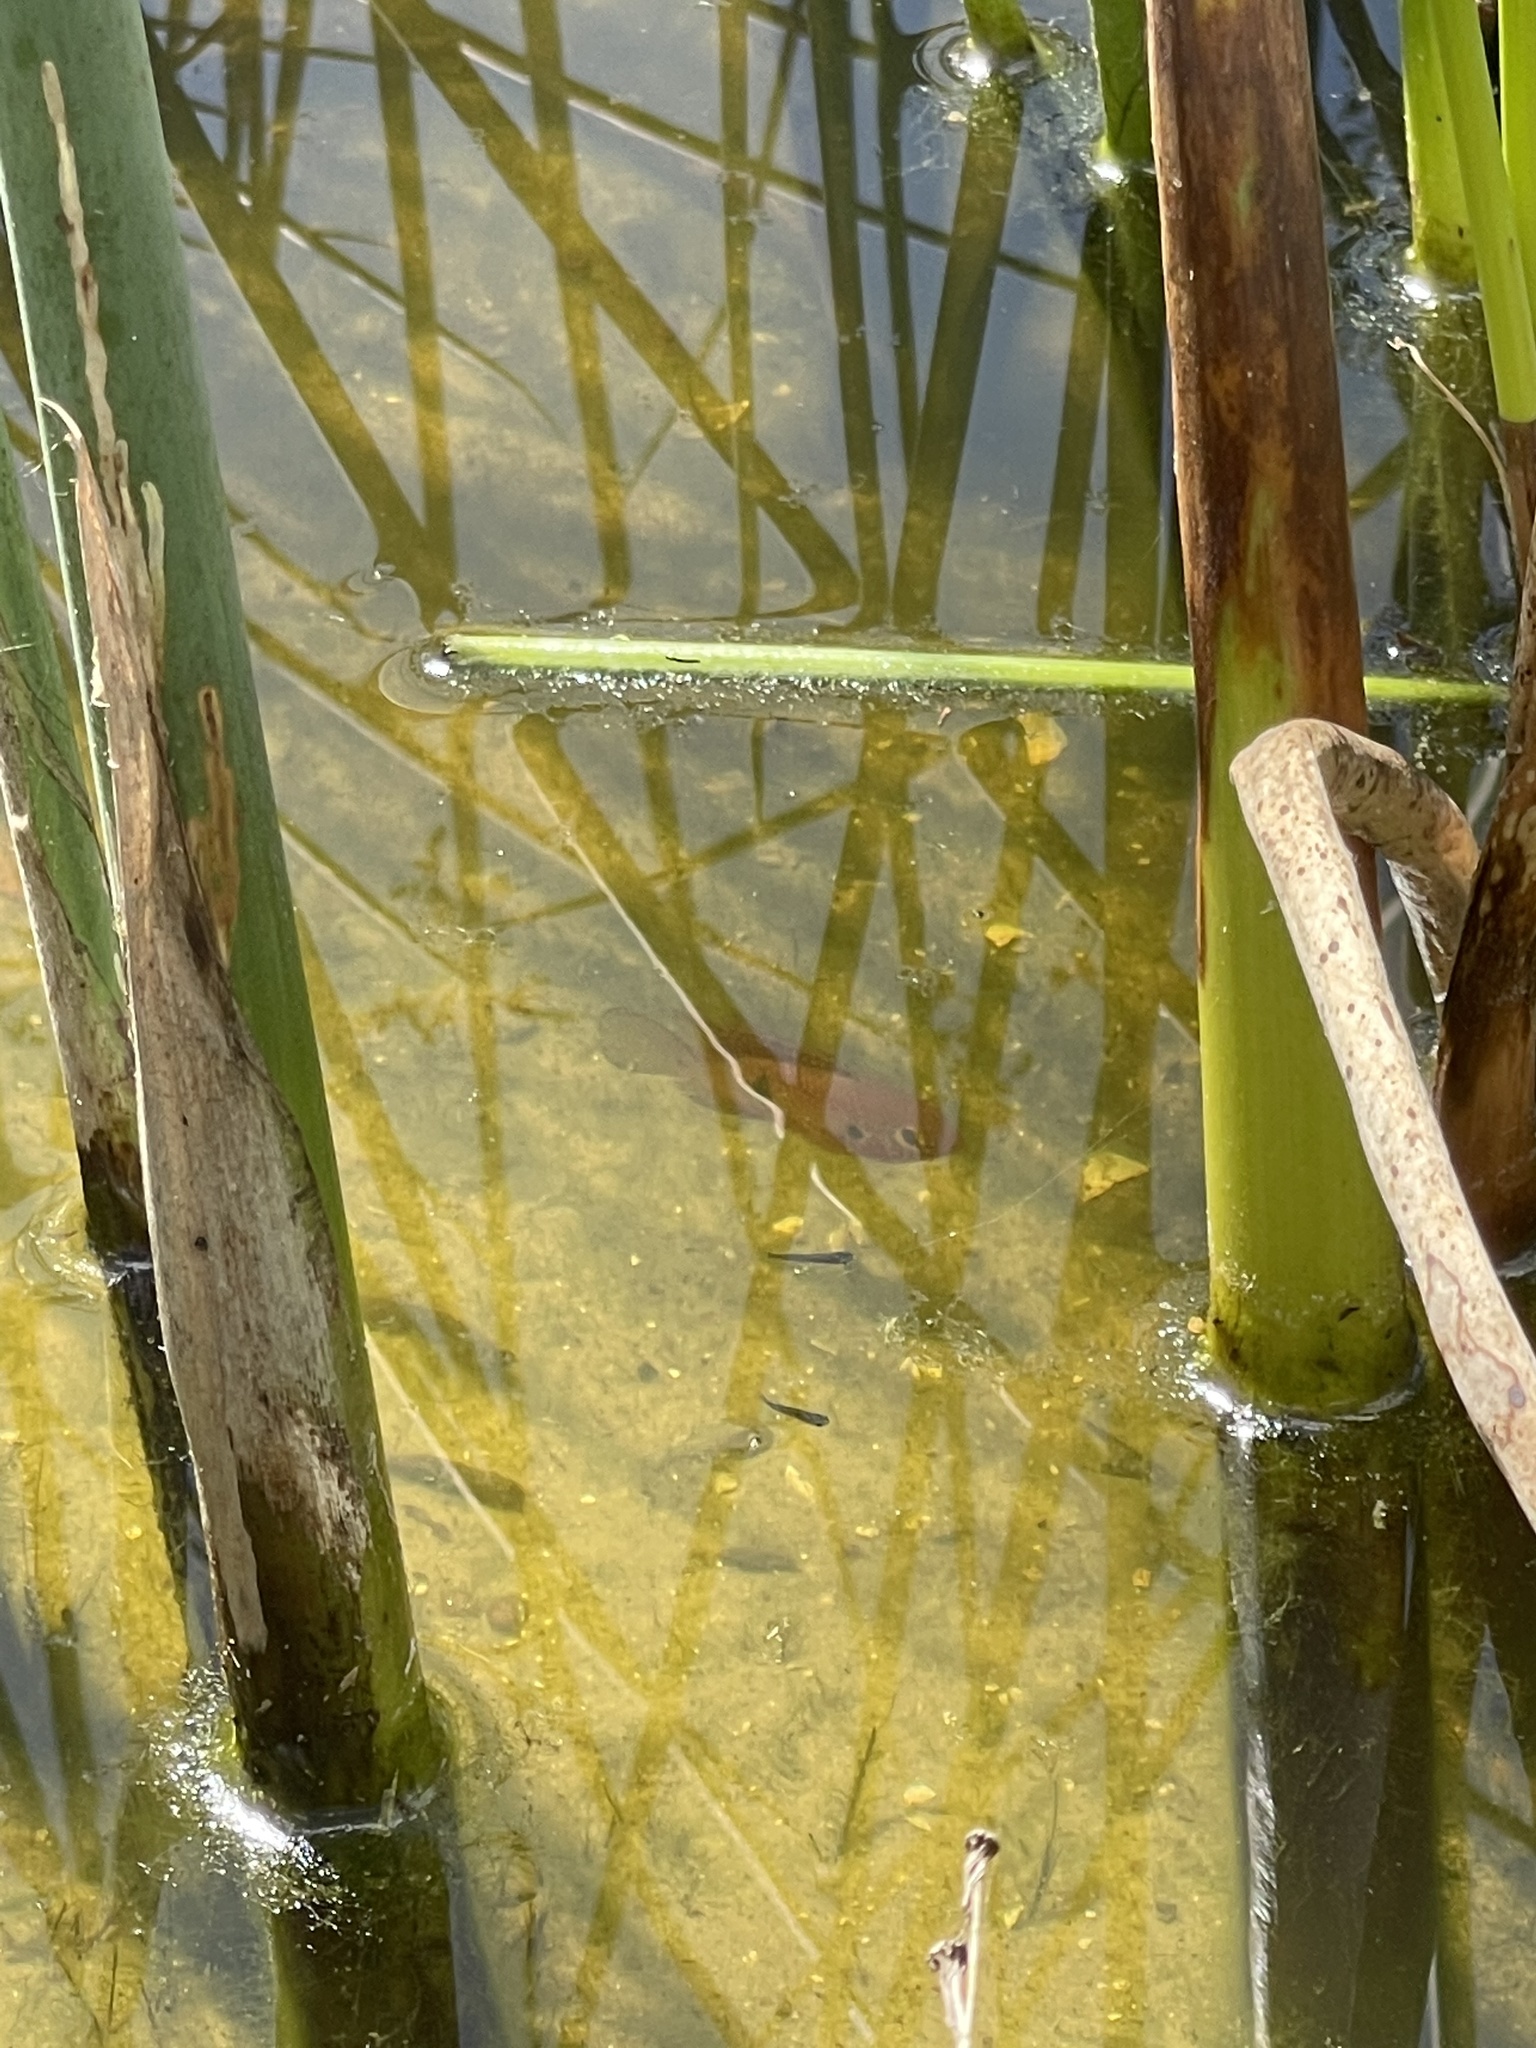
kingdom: Animalia
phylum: Chordata
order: Perciformes
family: Cichlidae
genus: Rubricatochromis
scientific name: Rubricatochromis
